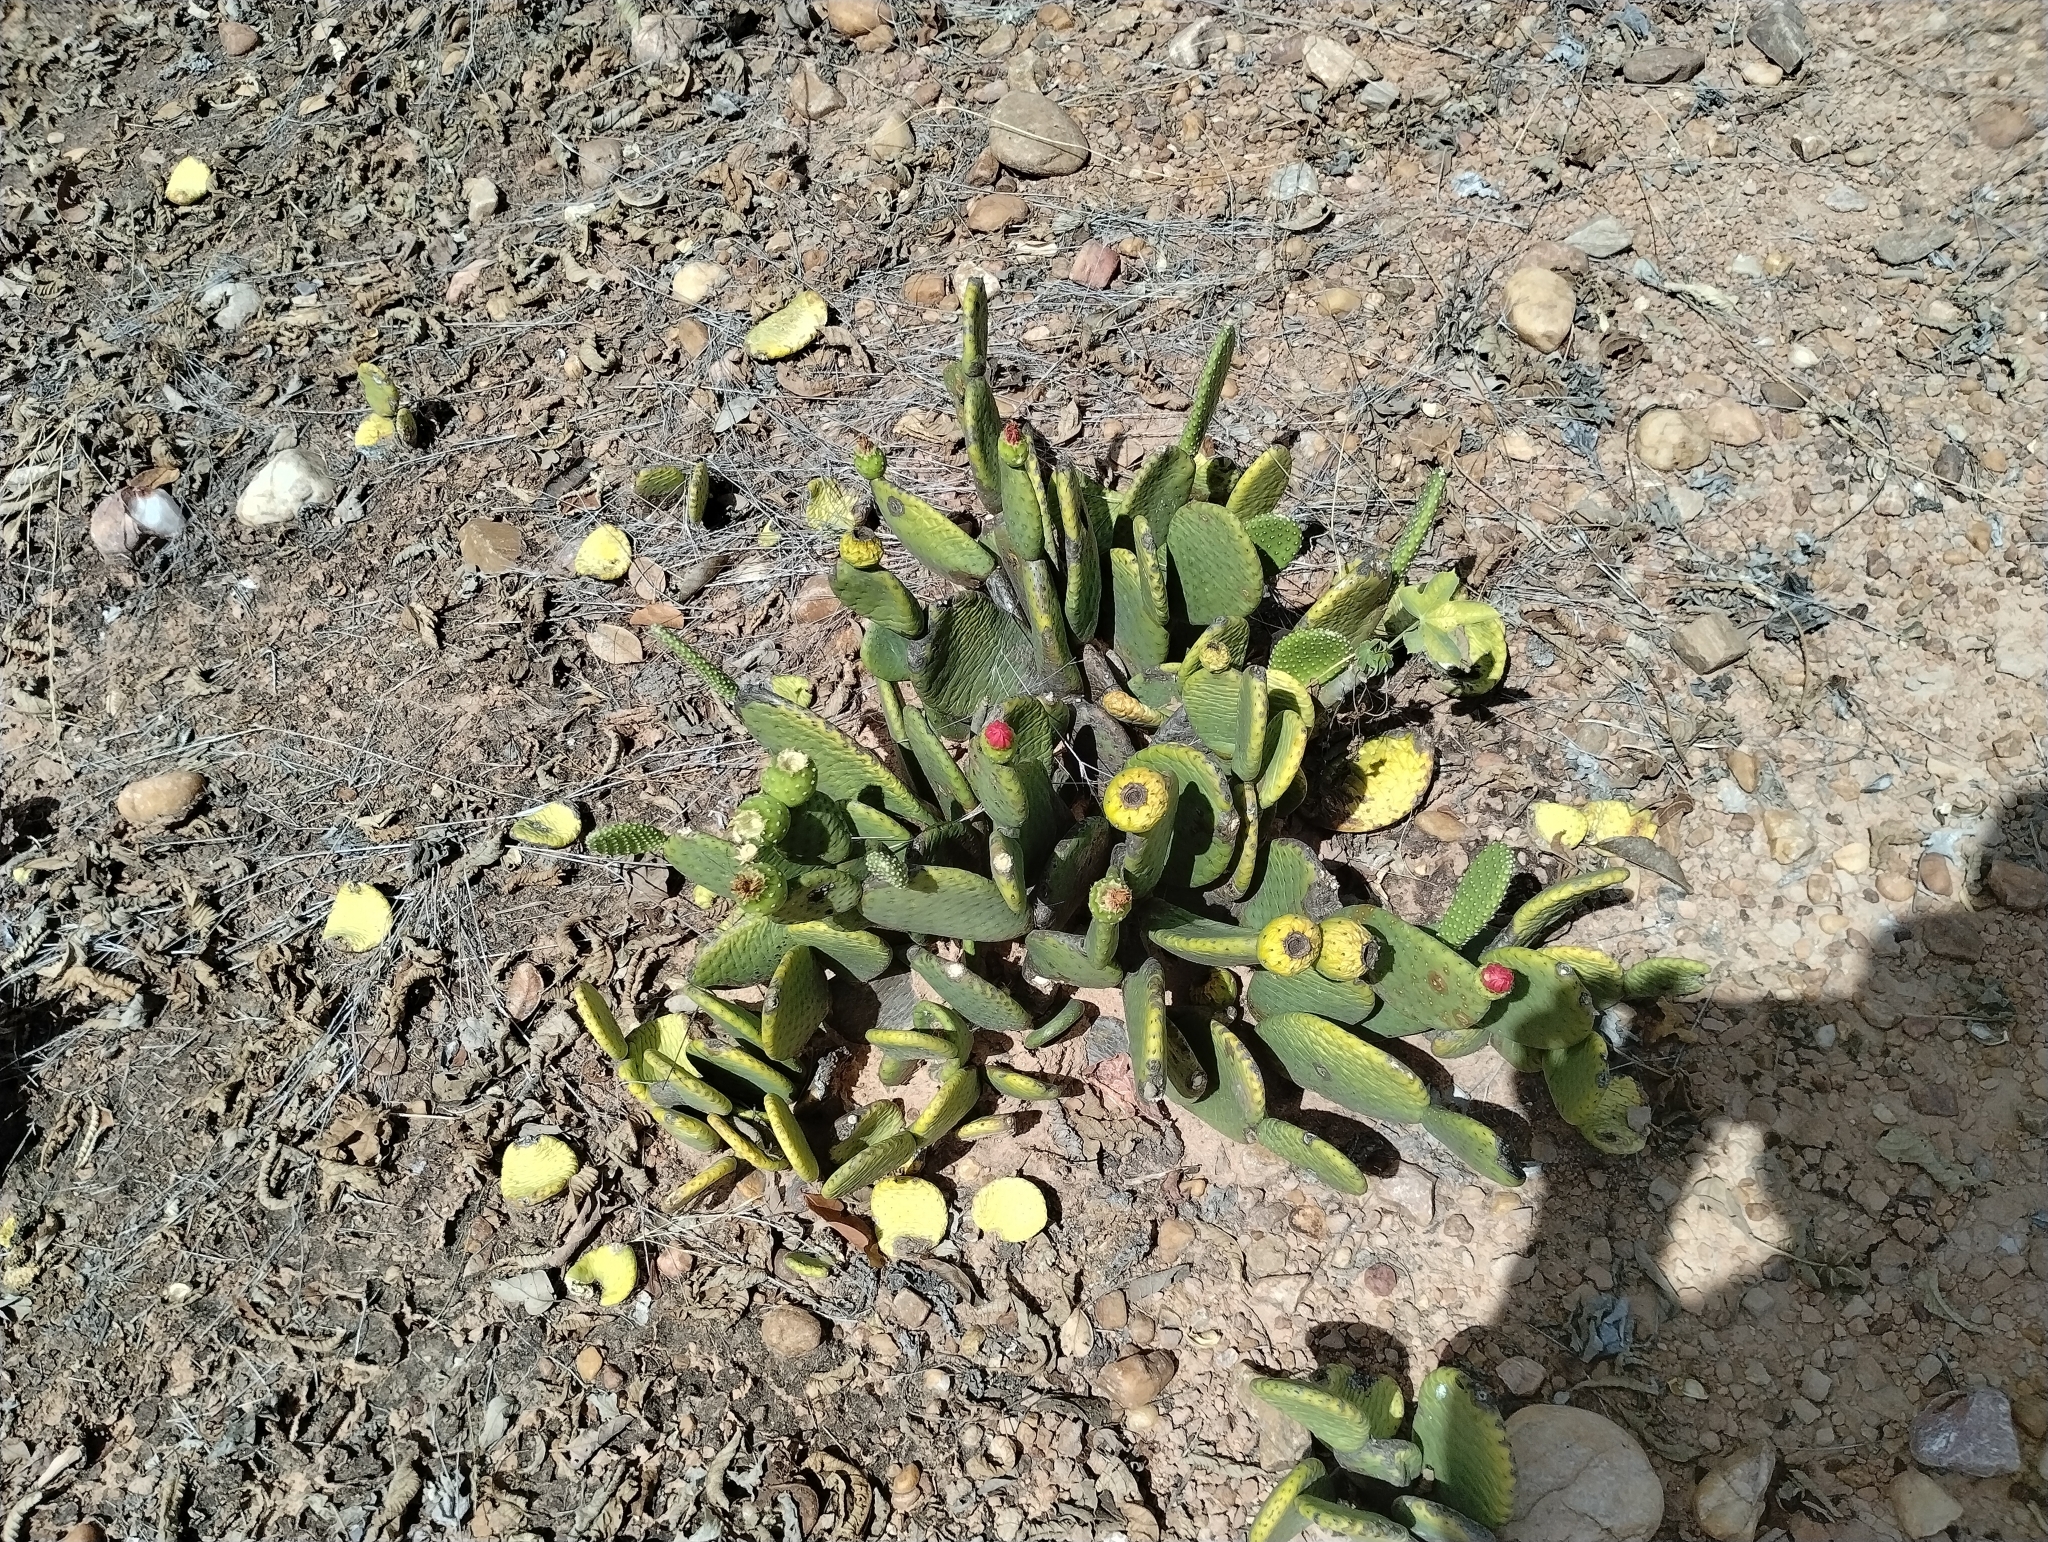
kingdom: Plantae
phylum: Tracheophyta
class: Magnoliopsida
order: Caryophyllales
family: Cactaceae
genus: Tacinga
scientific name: Tacinga inamoena
